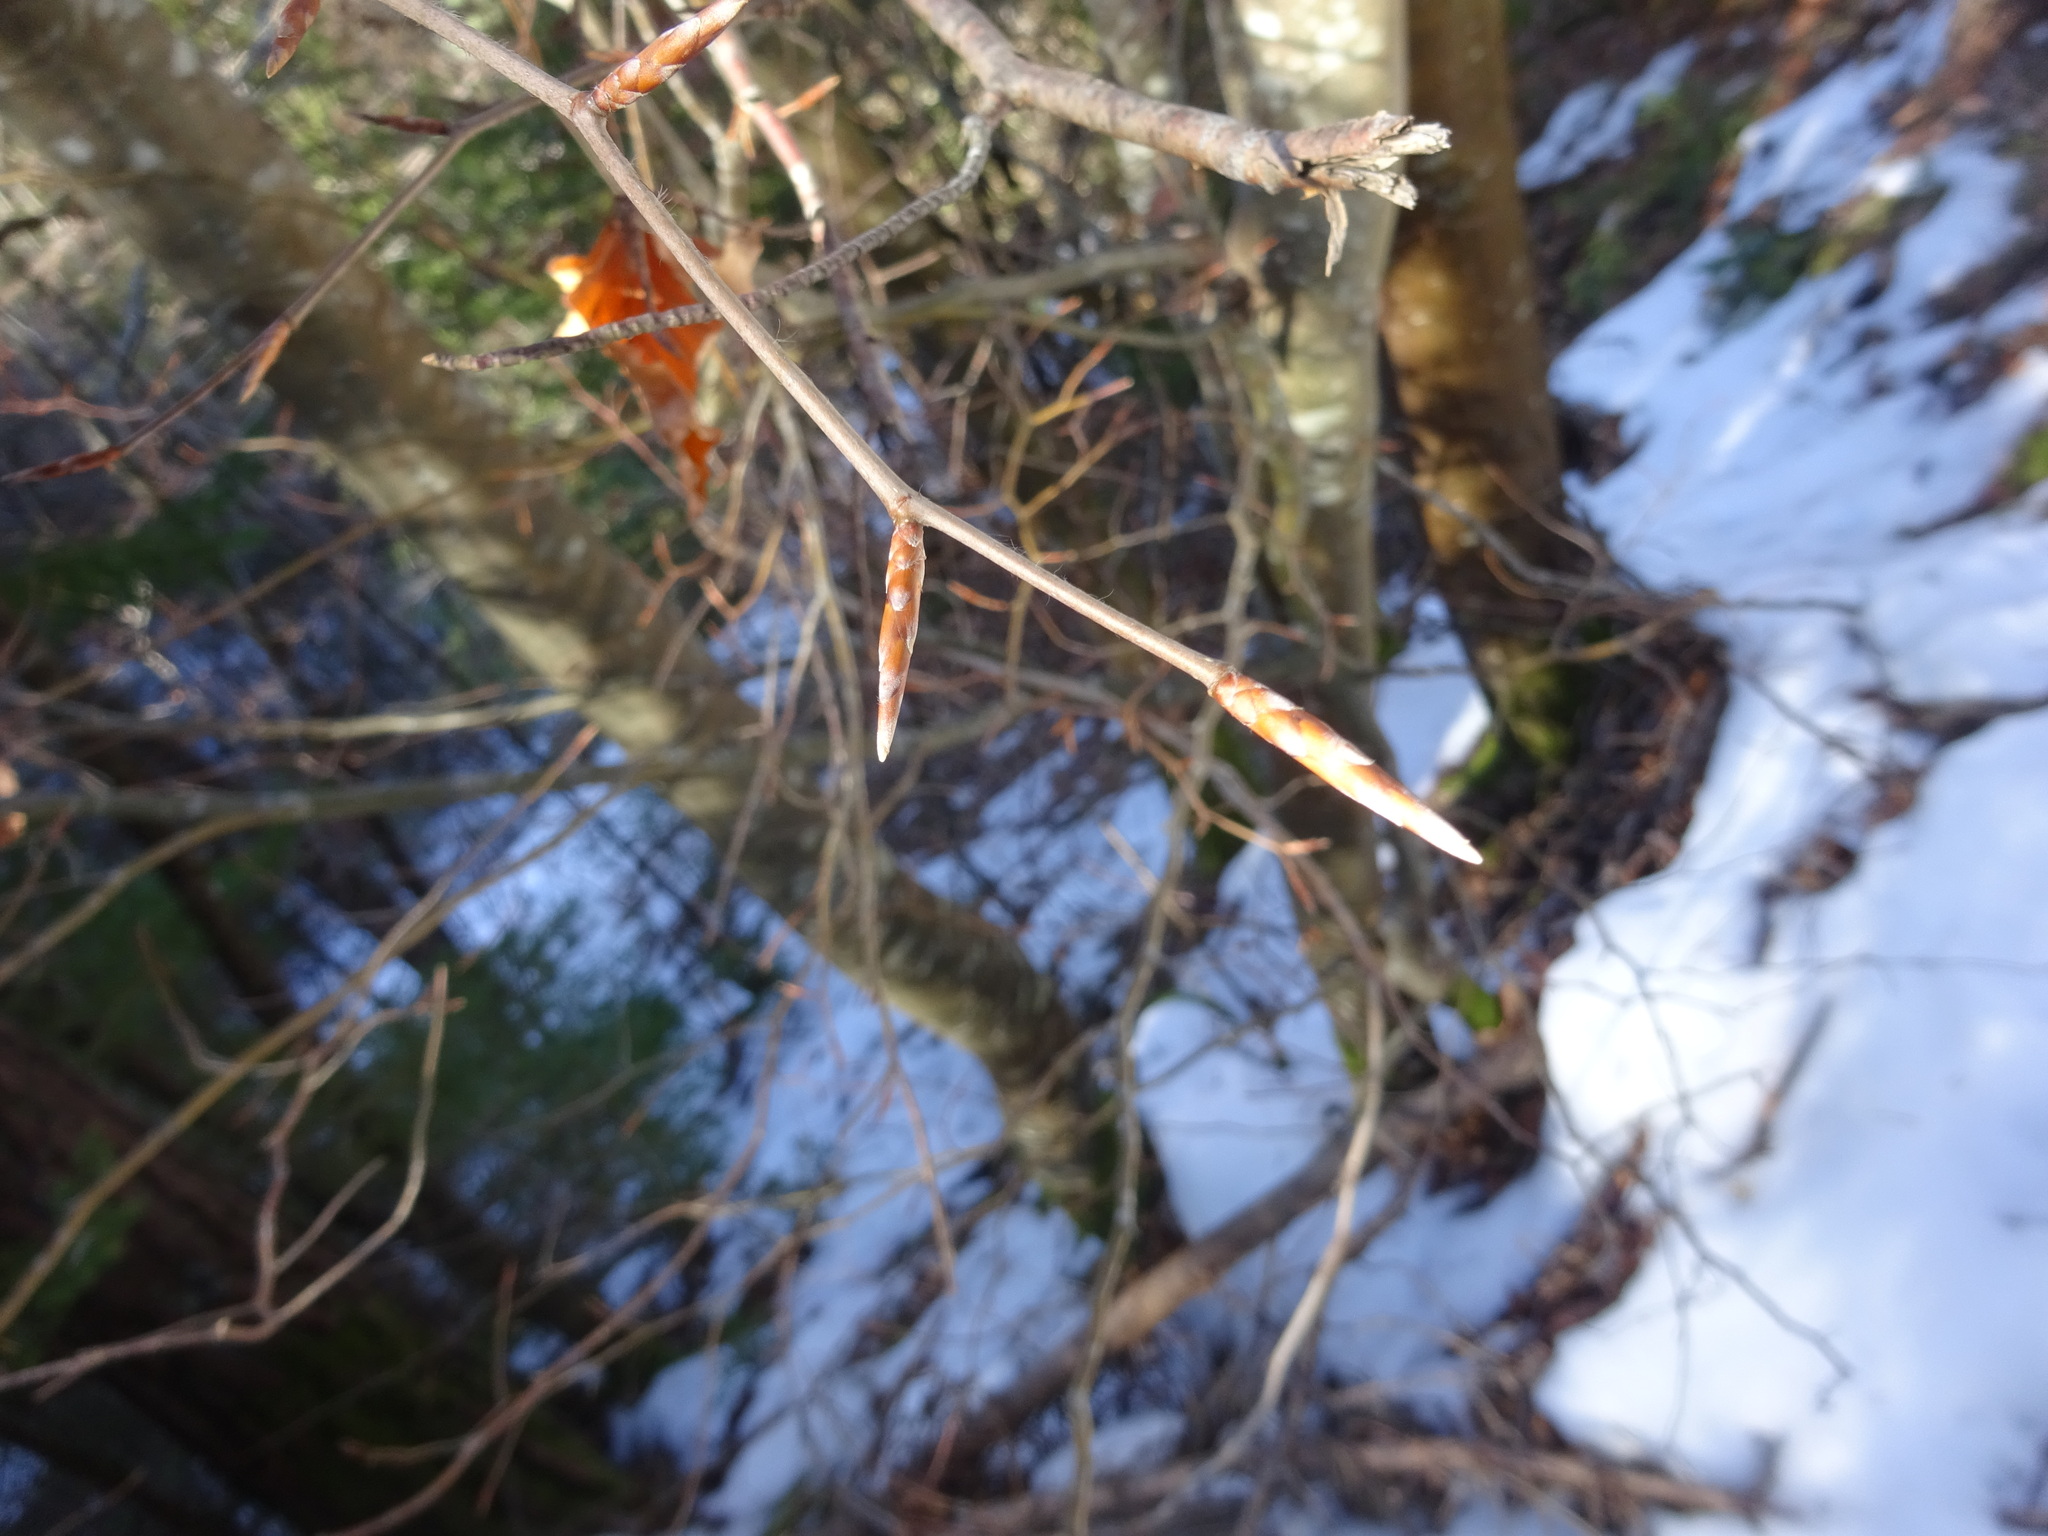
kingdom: Plantae
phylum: Tracheophyta
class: Magnoliopsida
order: Fagales
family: Fagaceae
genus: Fagus
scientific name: Fagus sylvatica
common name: Beech
